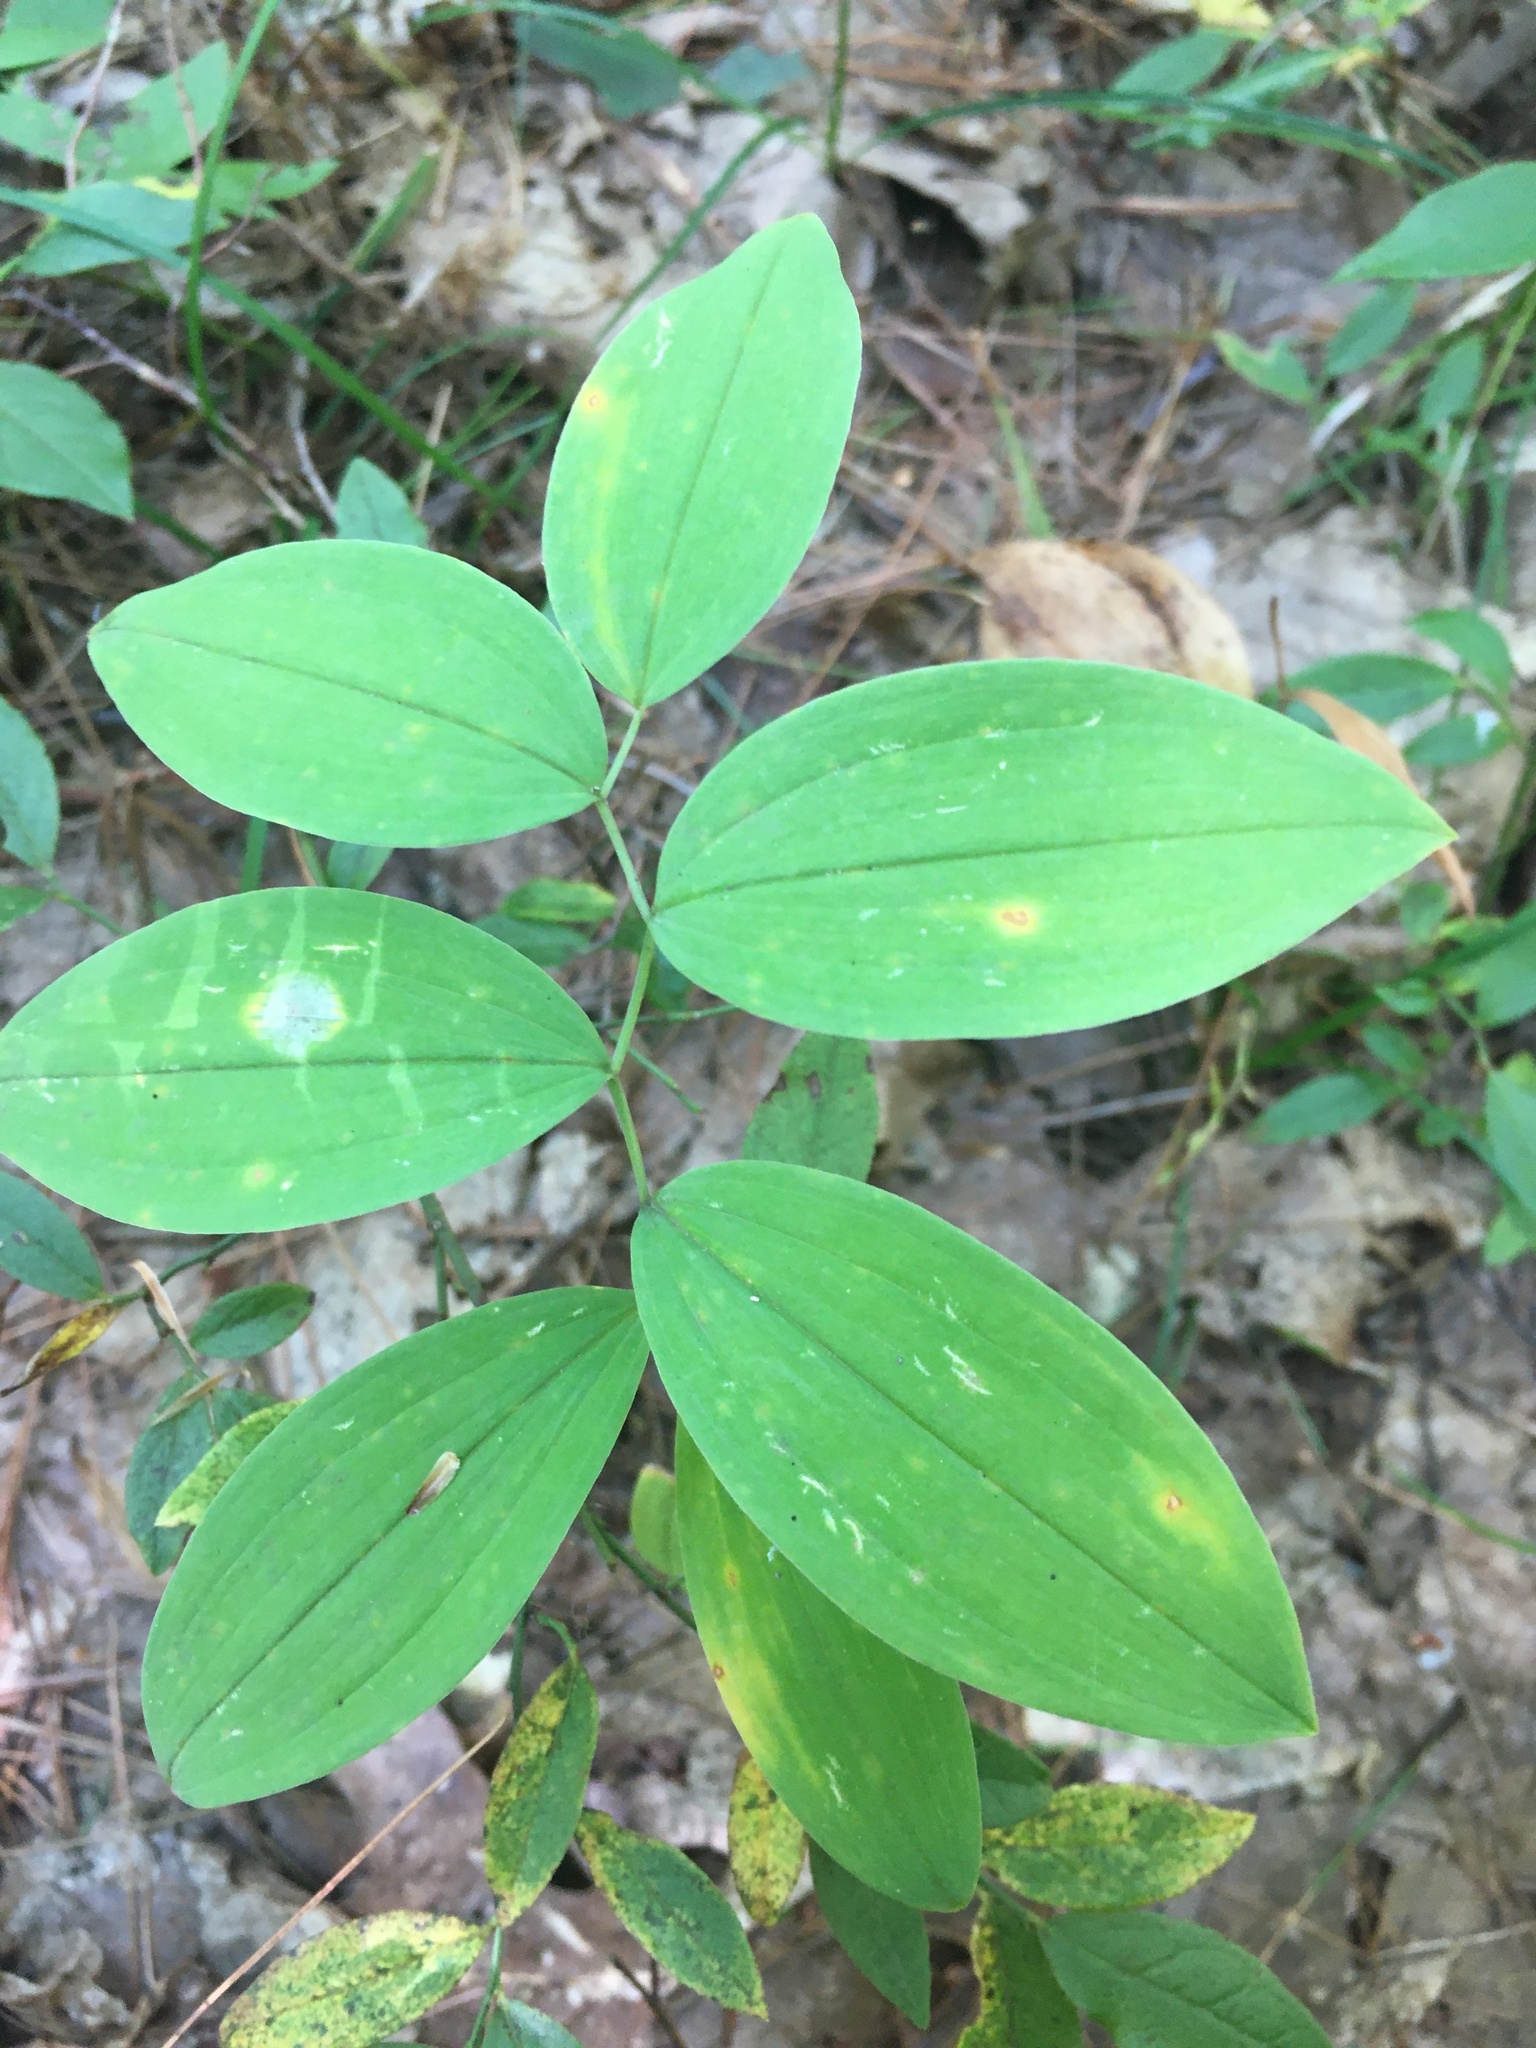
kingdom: Plantae
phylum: Tracheophyta
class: Liliopsida
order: Liliales
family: Colchicaceae
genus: Uvularia
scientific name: Uvularia sessilifolia
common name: Straw-lily
